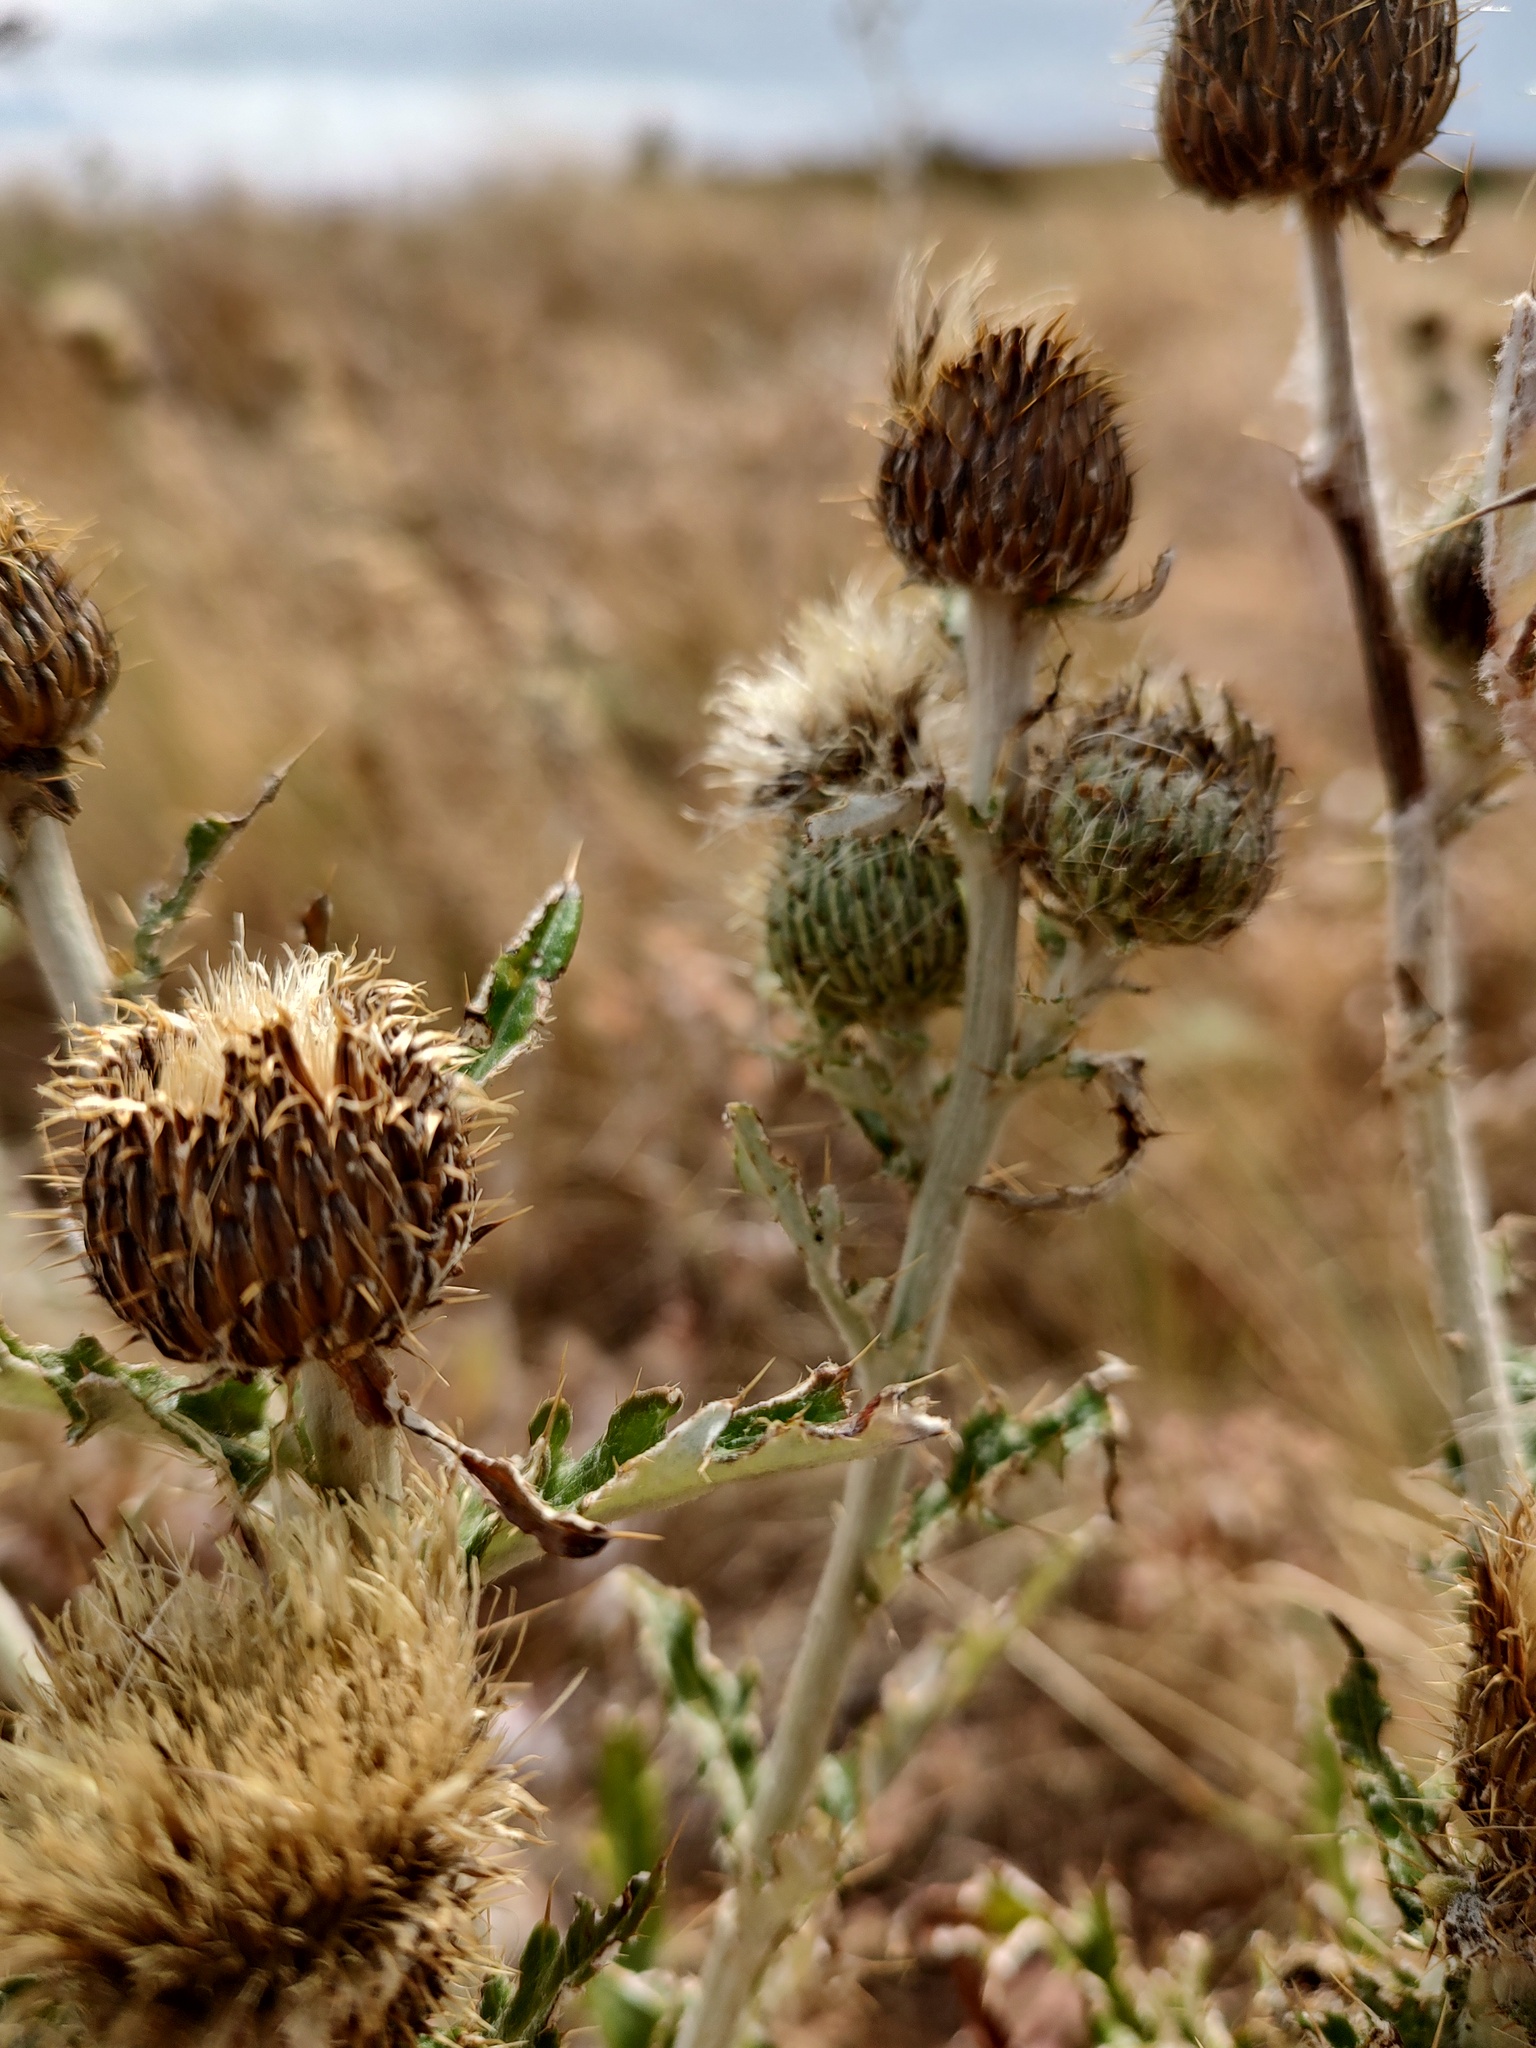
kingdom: Plantae
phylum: Tracheophyta
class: Magnoliopsida
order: Asterales
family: Asteraceae
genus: Cirsium
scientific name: Cirsium brevifolium
